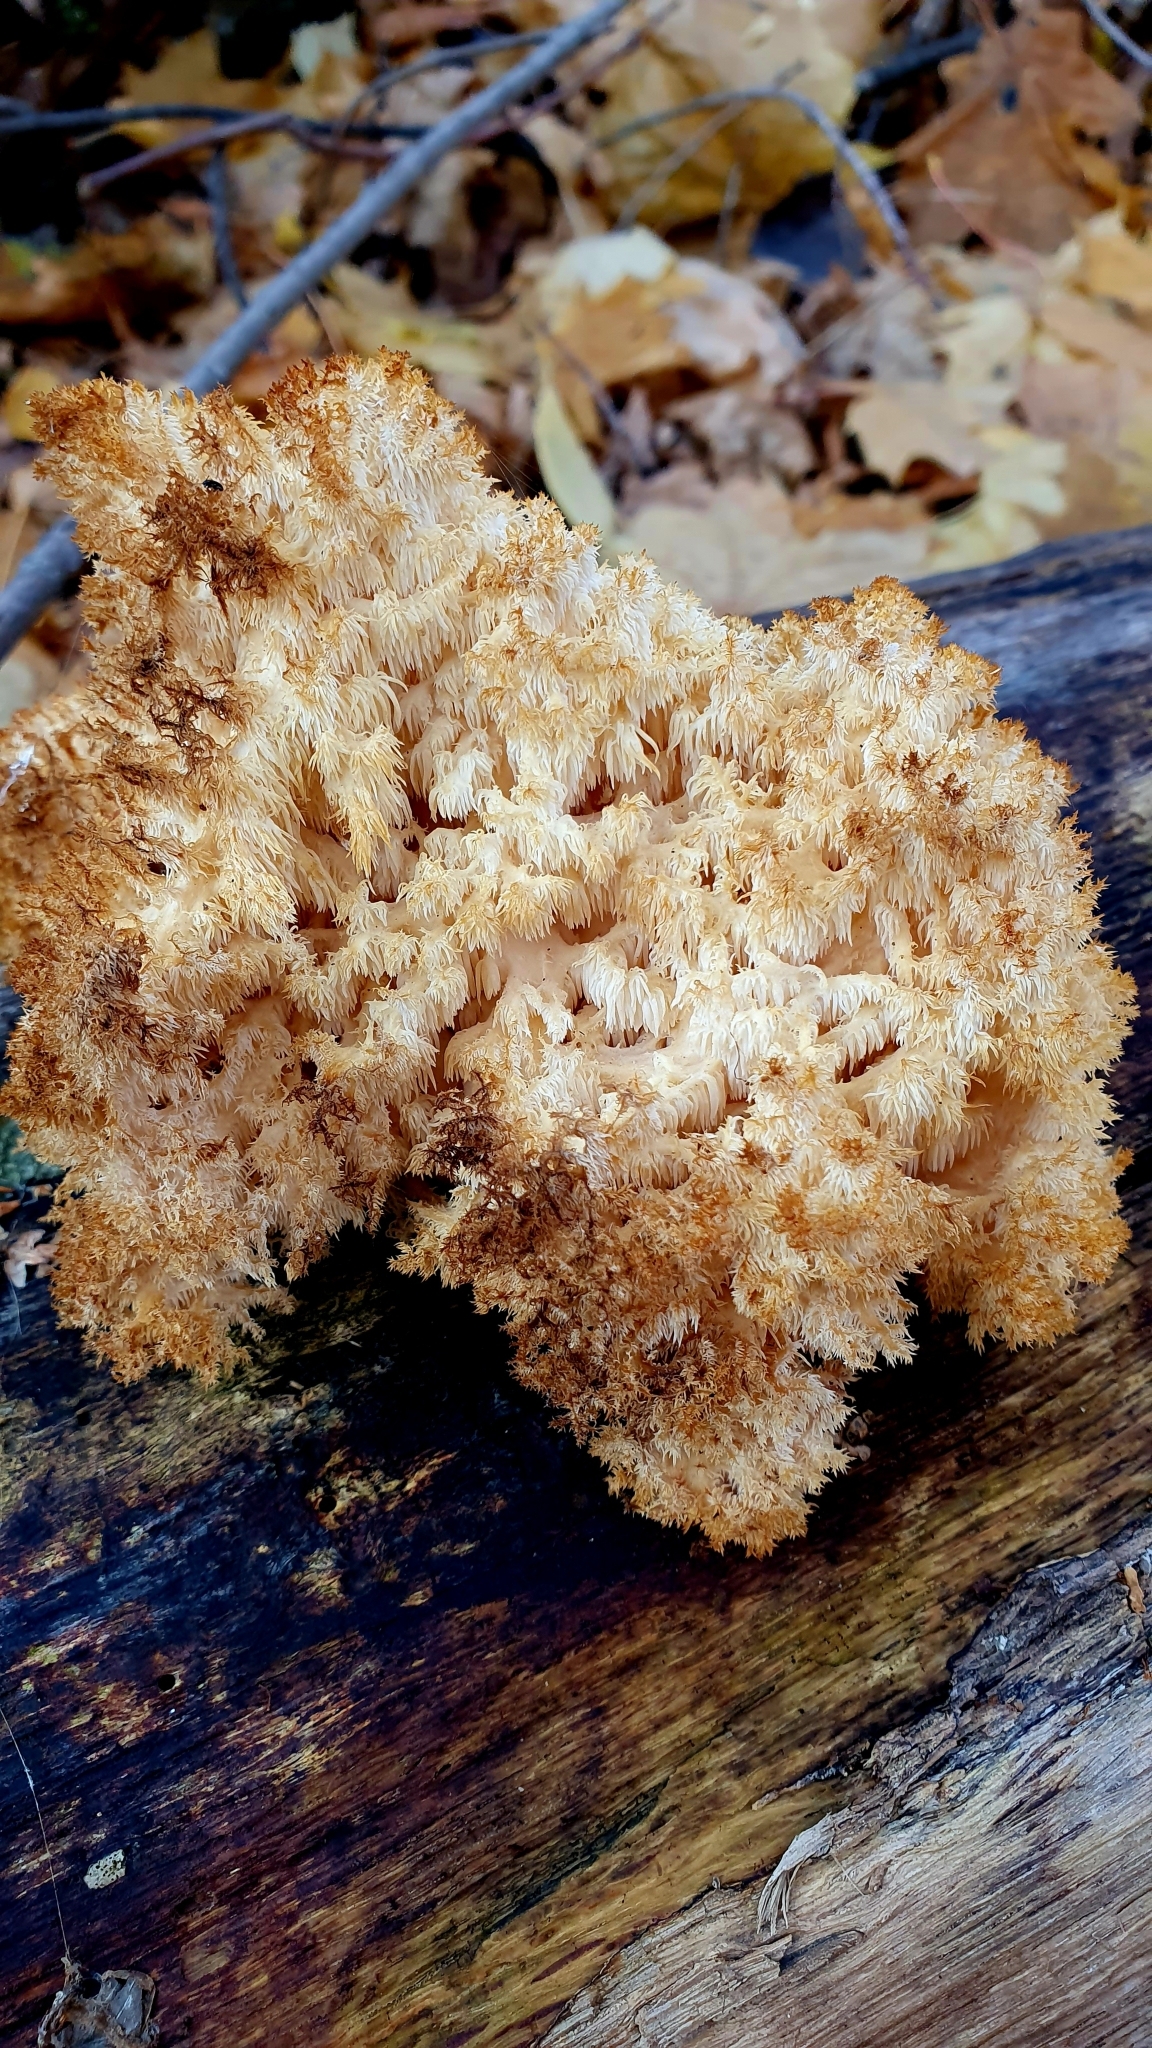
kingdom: Fungi
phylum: Basidiomycota
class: Agaricomycetes
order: Russulales
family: Hericiaceae
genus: Hericium
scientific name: Hericium coralloides
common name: Coral tooth
